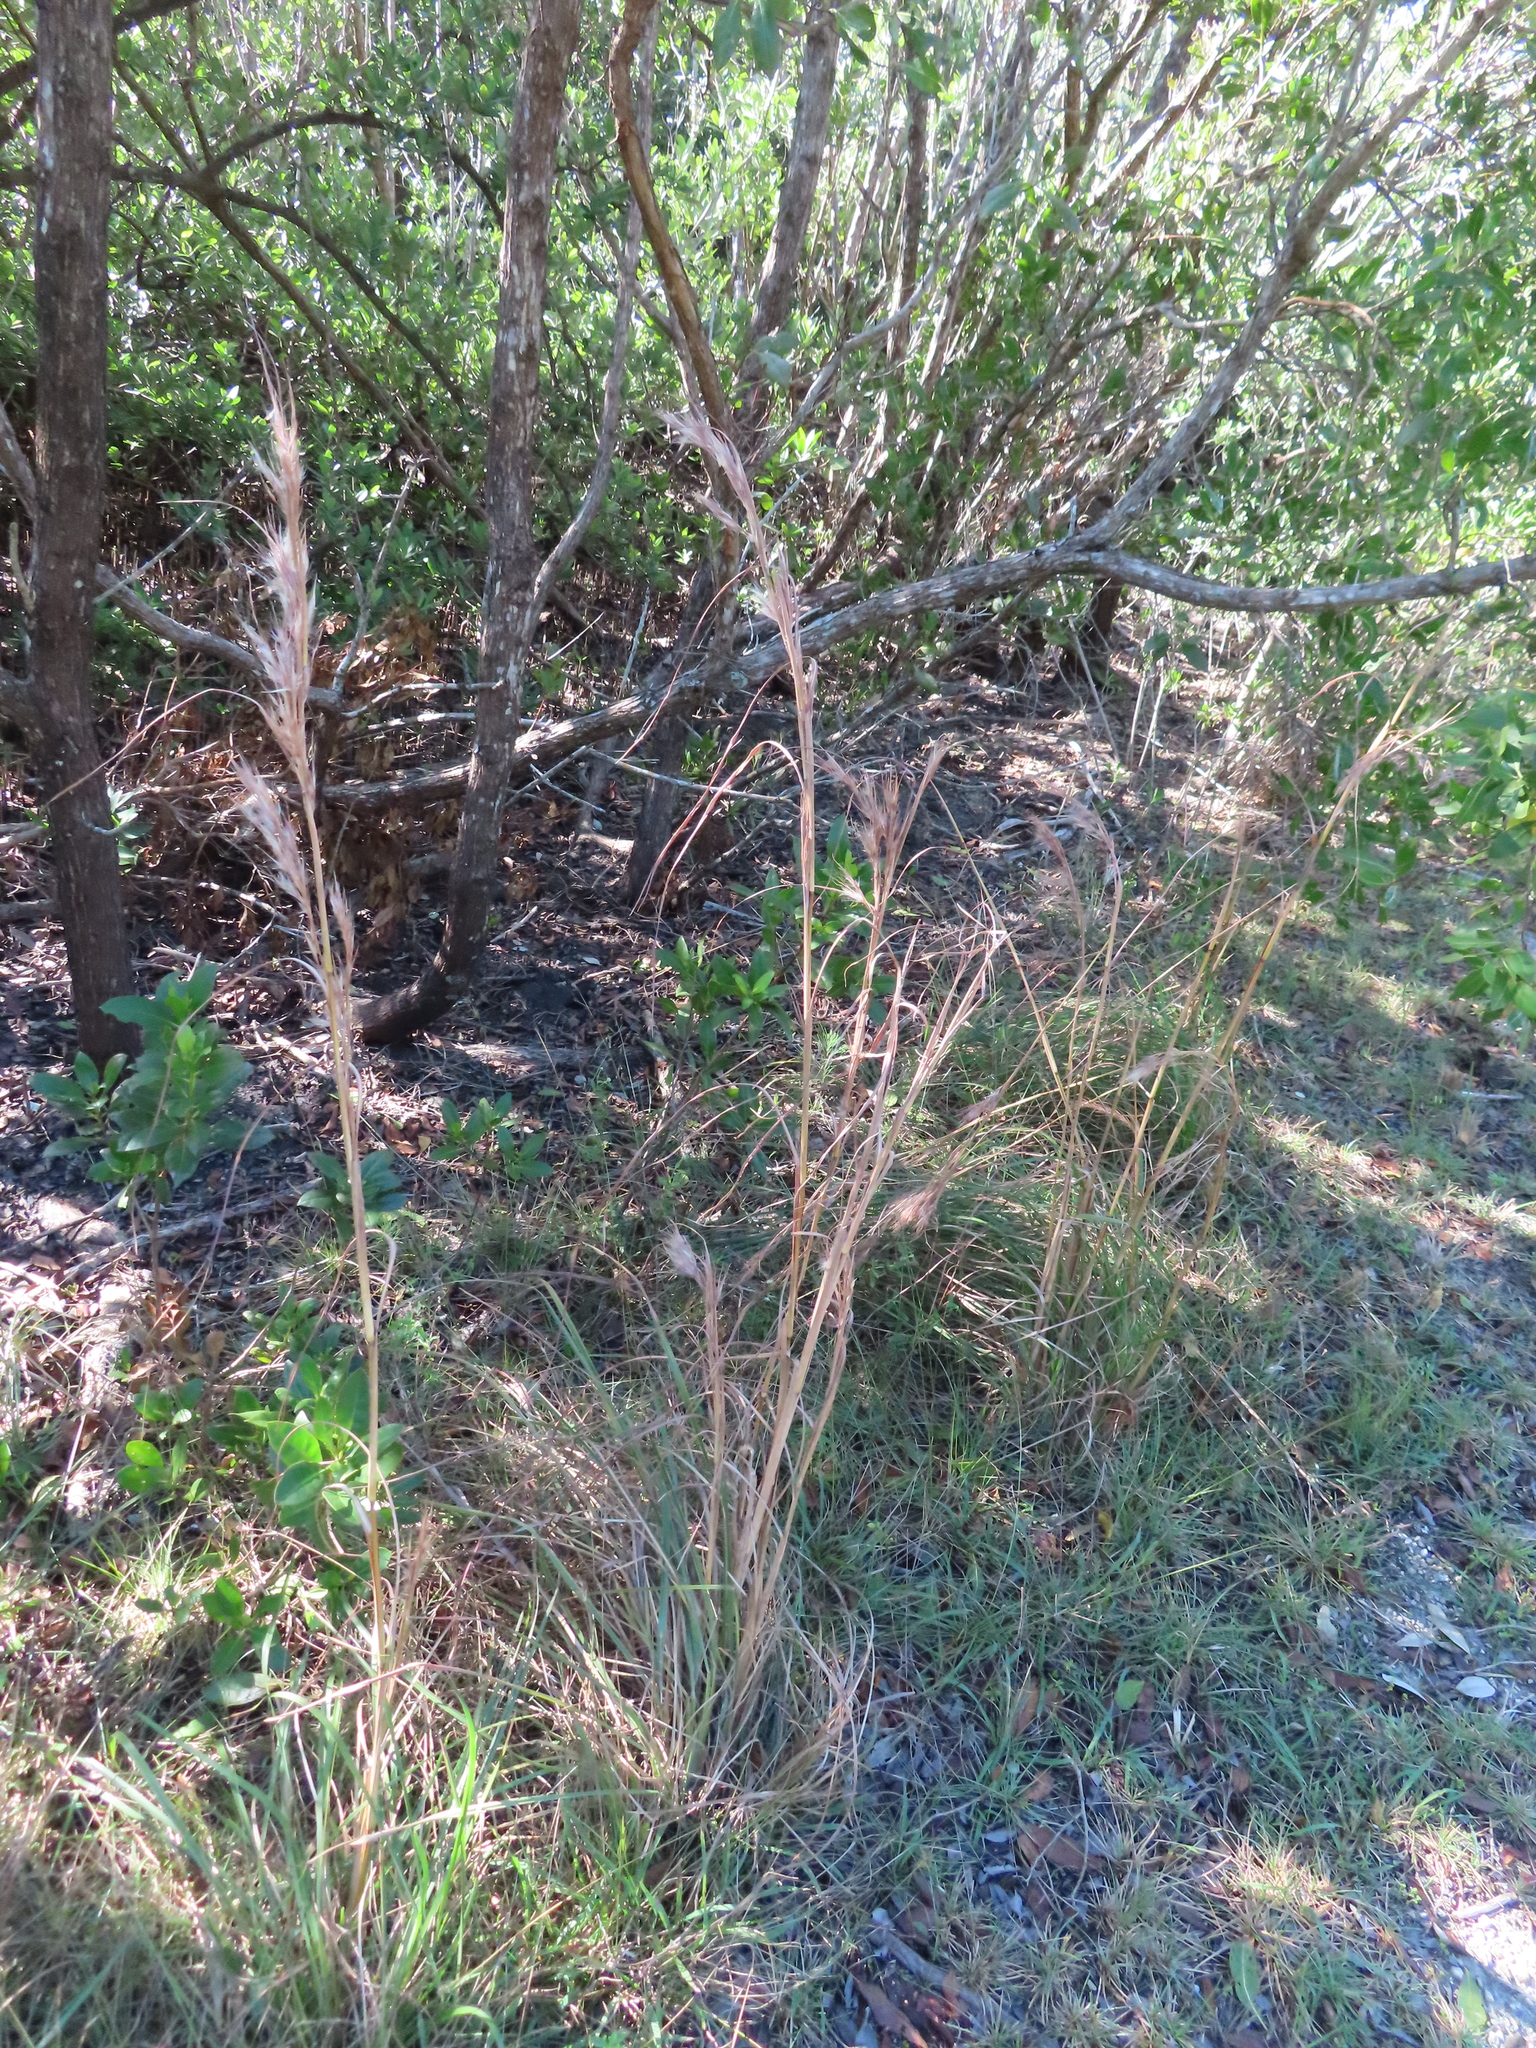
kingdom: Plantae
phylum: Tracheophyta
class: Liliopsida
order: Poales
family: Poaceae
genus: Andropogon
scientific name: Andropogon tenuispatheus
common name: Bushy bluestem
